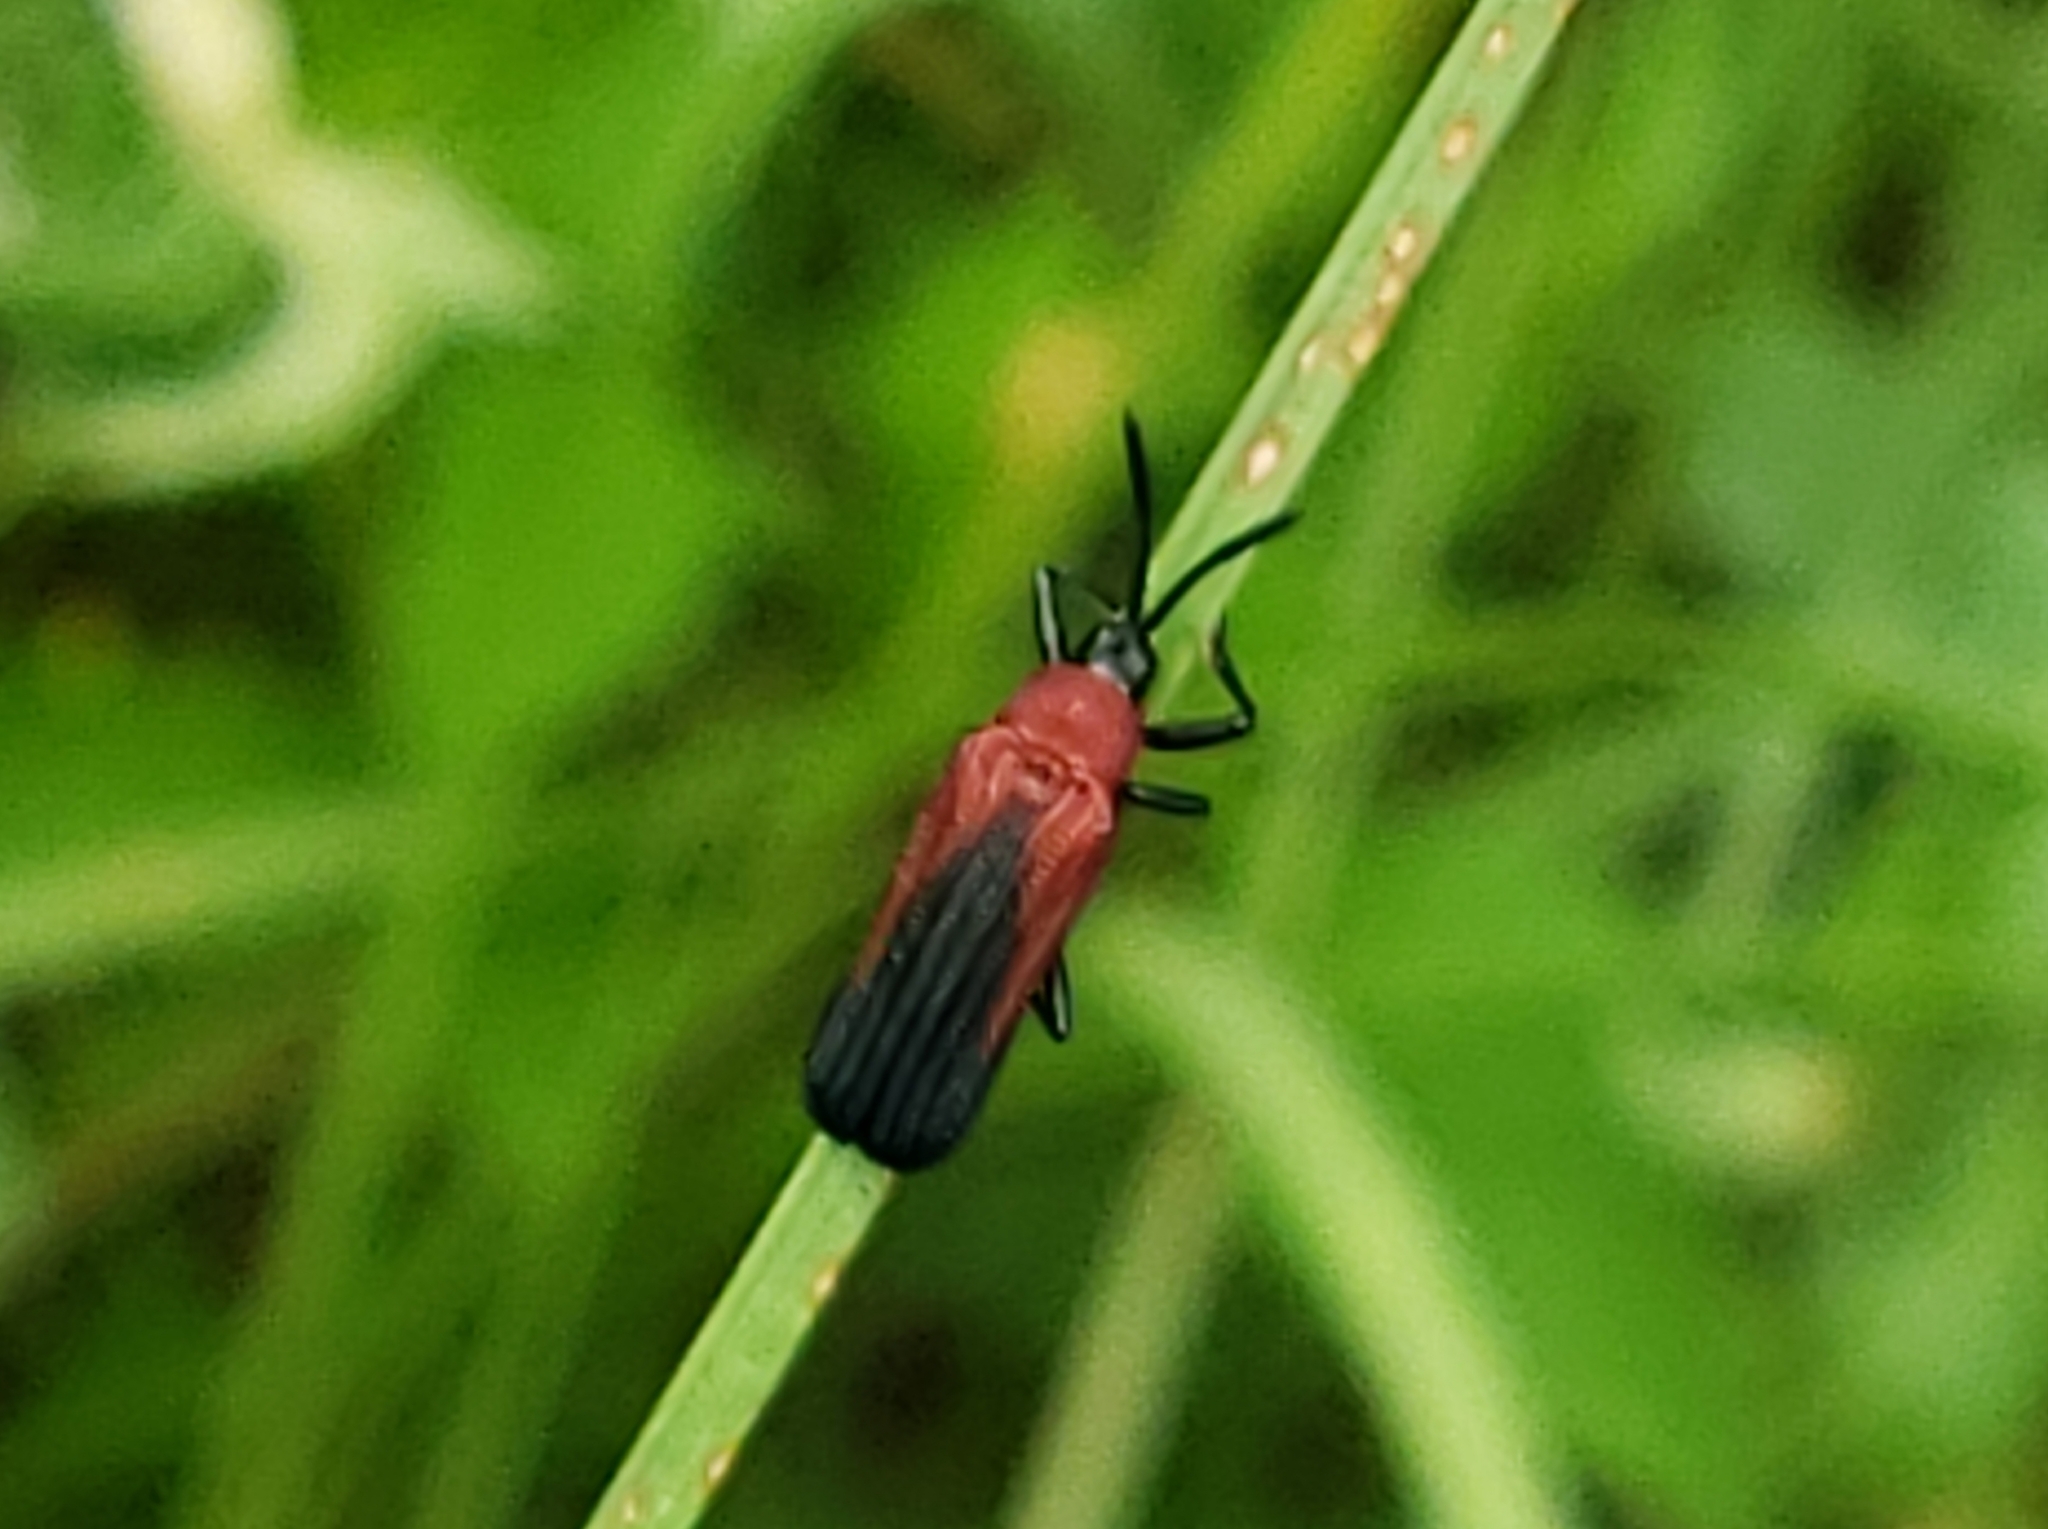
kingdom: Animalia
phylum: Arthropoda
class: Insecta
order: Coleoptera
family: Chrysomelidae
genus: Chalepus
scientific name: Chalepus sanguinicollis
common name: Red-shouldered leaf beetle
